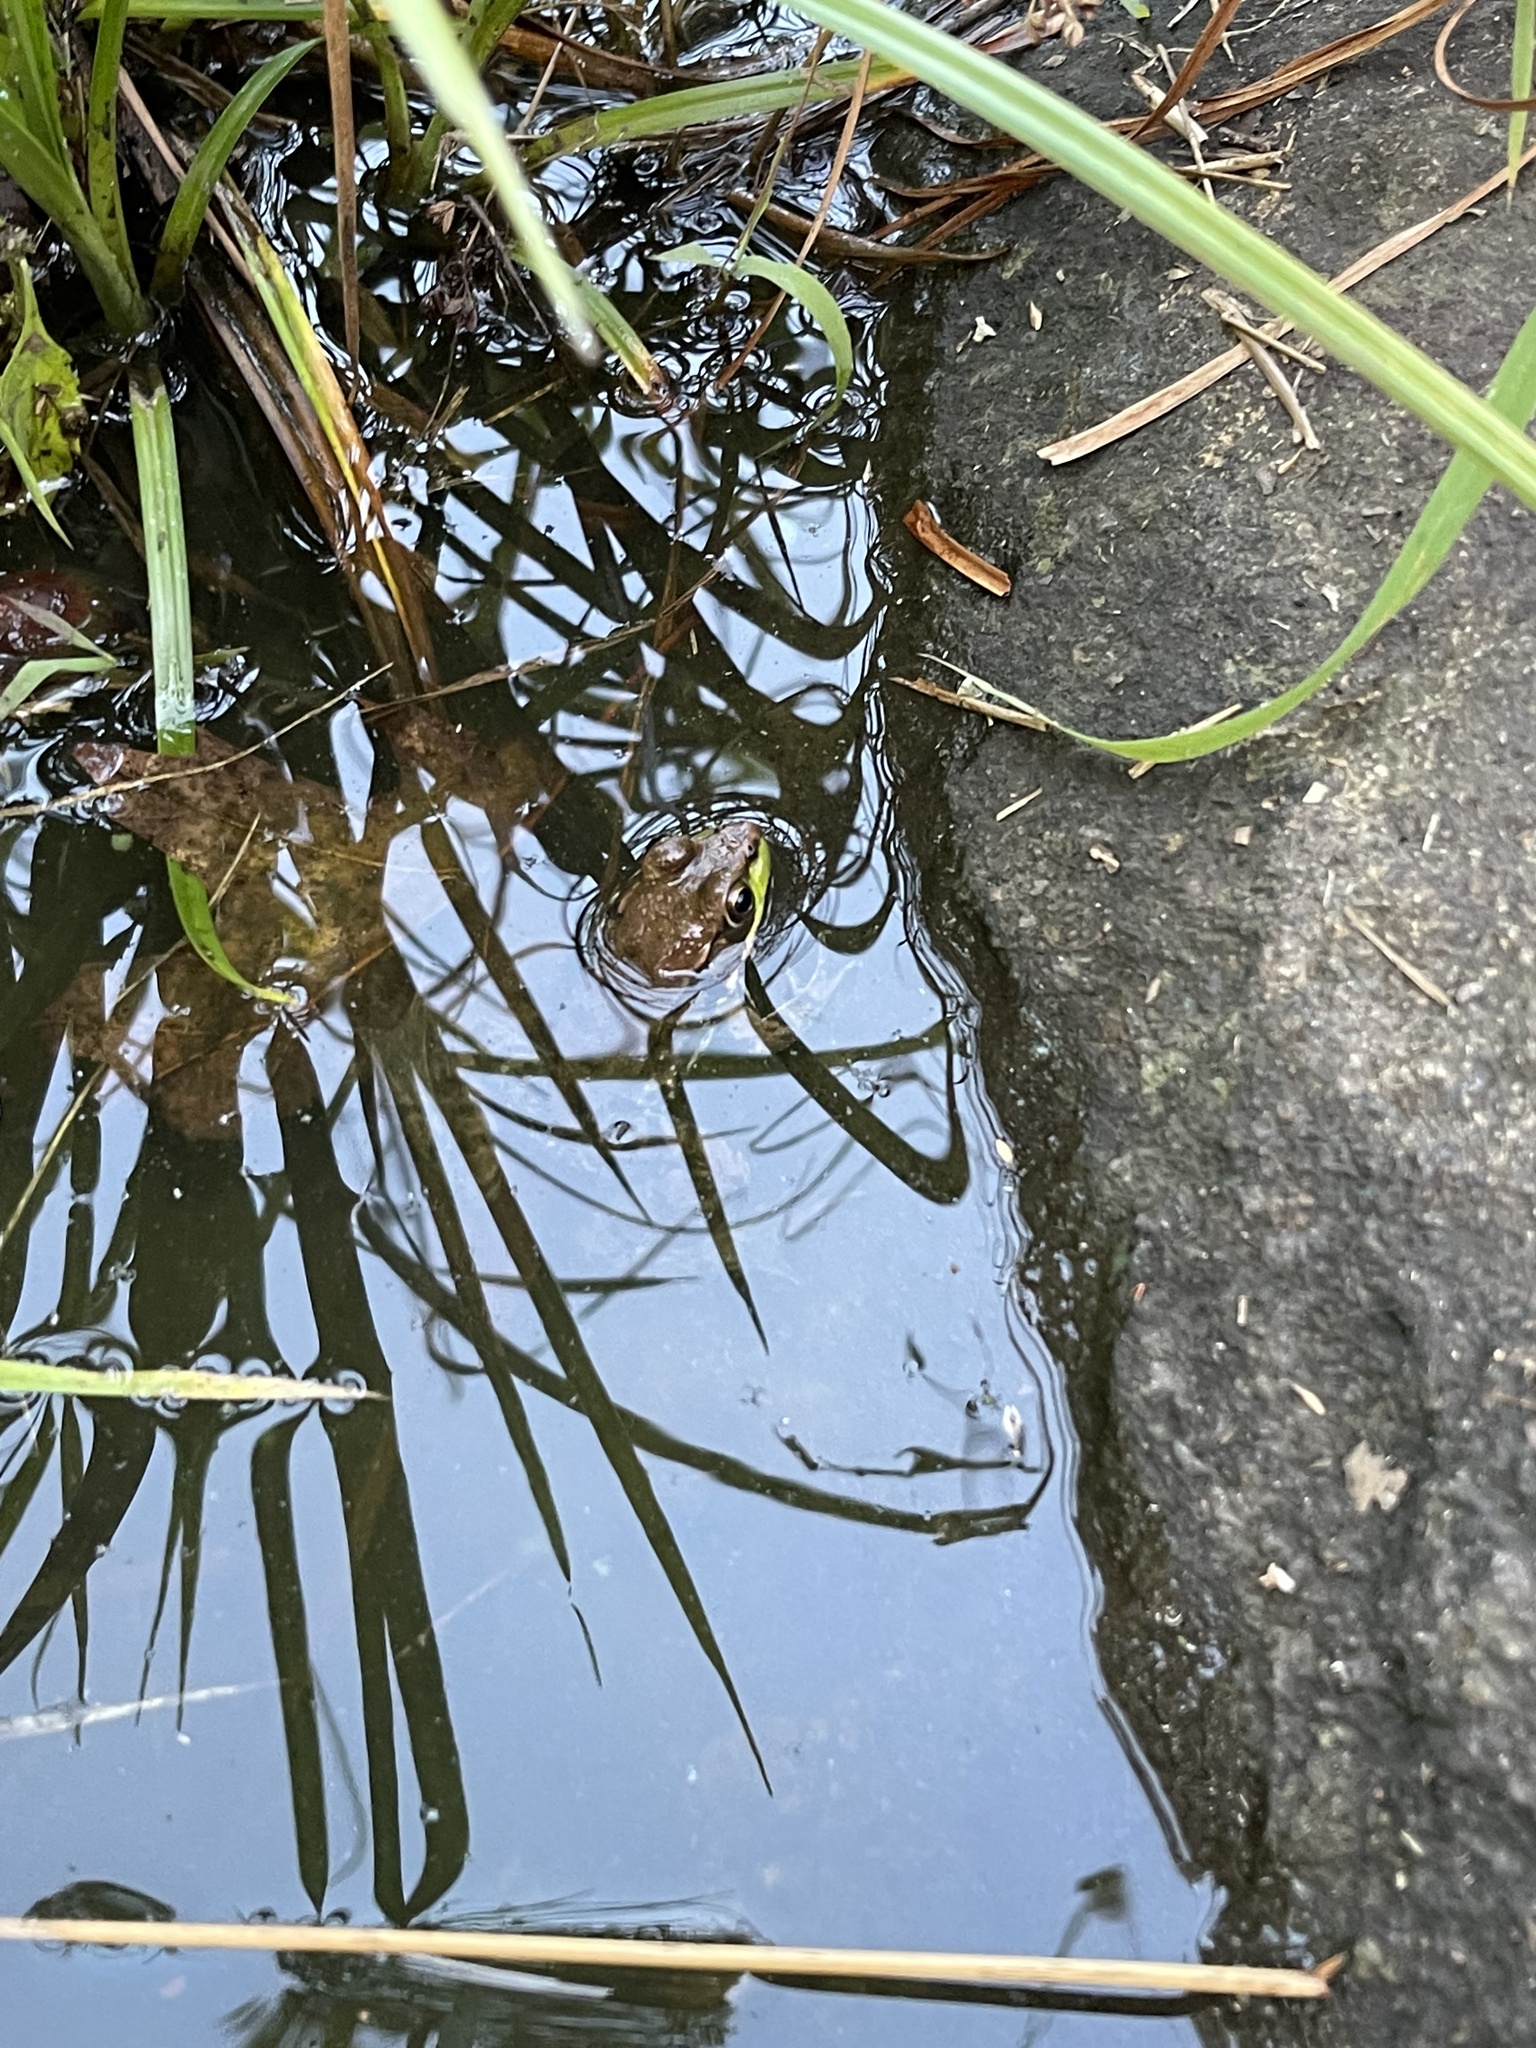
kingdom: Animalia
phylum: Chordata
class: Amphibia
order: Anura
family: Ranidae
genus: Lithobates
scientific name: Lithobates clamitans
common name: Green frog
